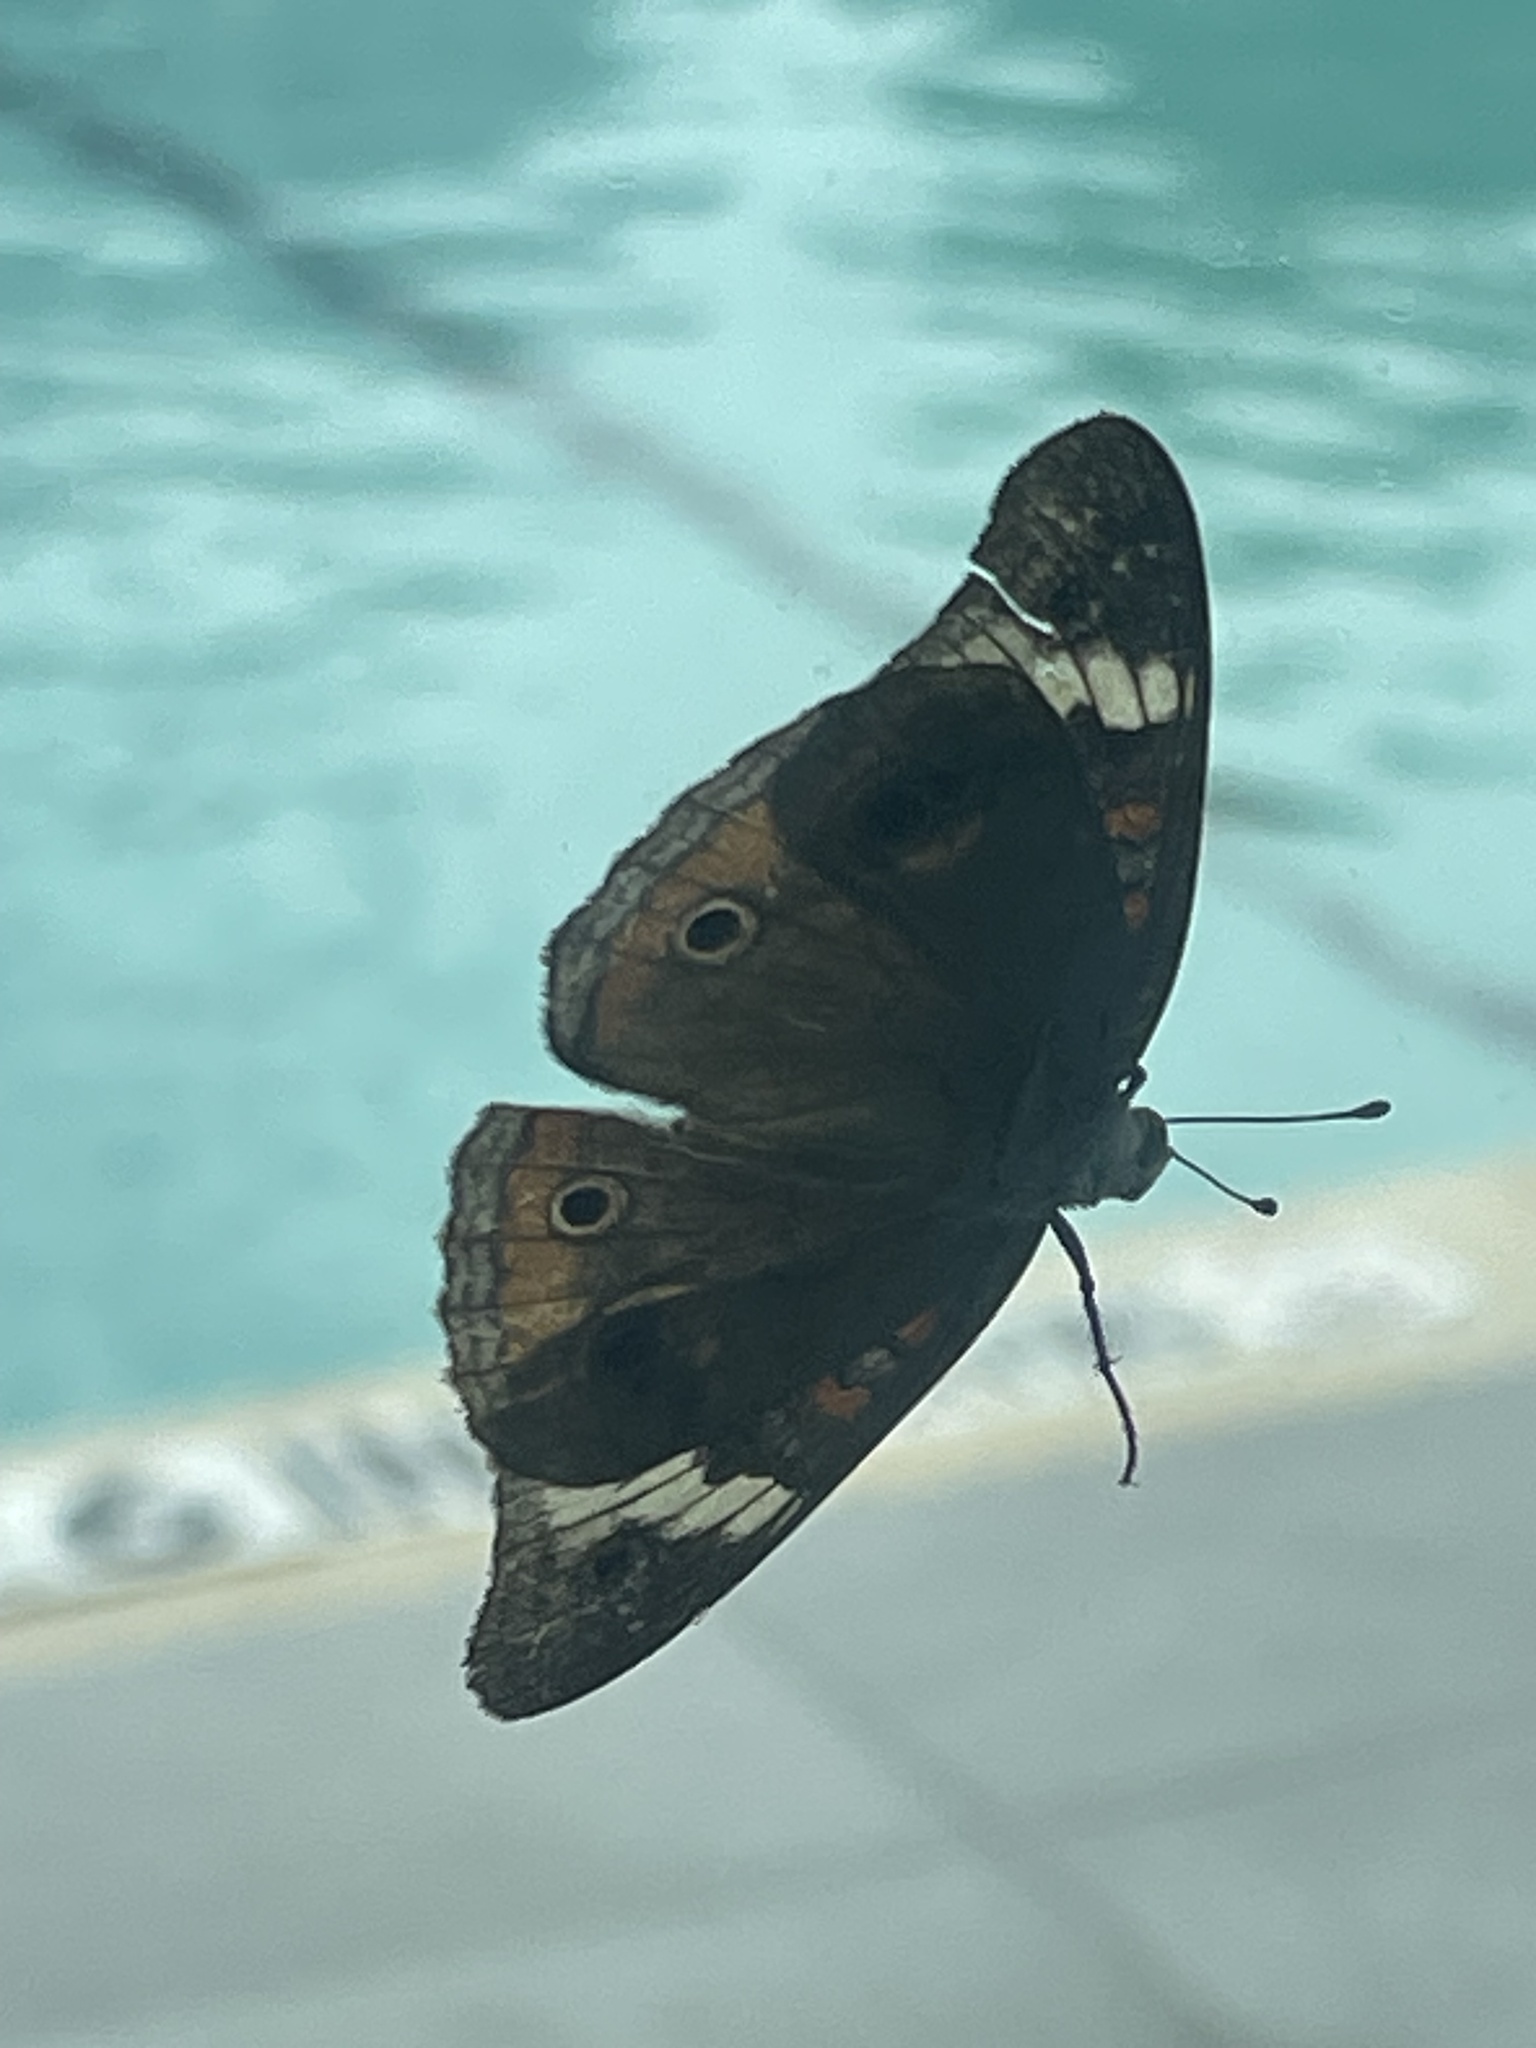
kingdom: Animalia
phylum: Arthropoda
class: Insecta
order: Lepidoptera
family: Nymphalidae
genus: Junonia
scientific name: Junonia coenia
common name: Common buckeye
